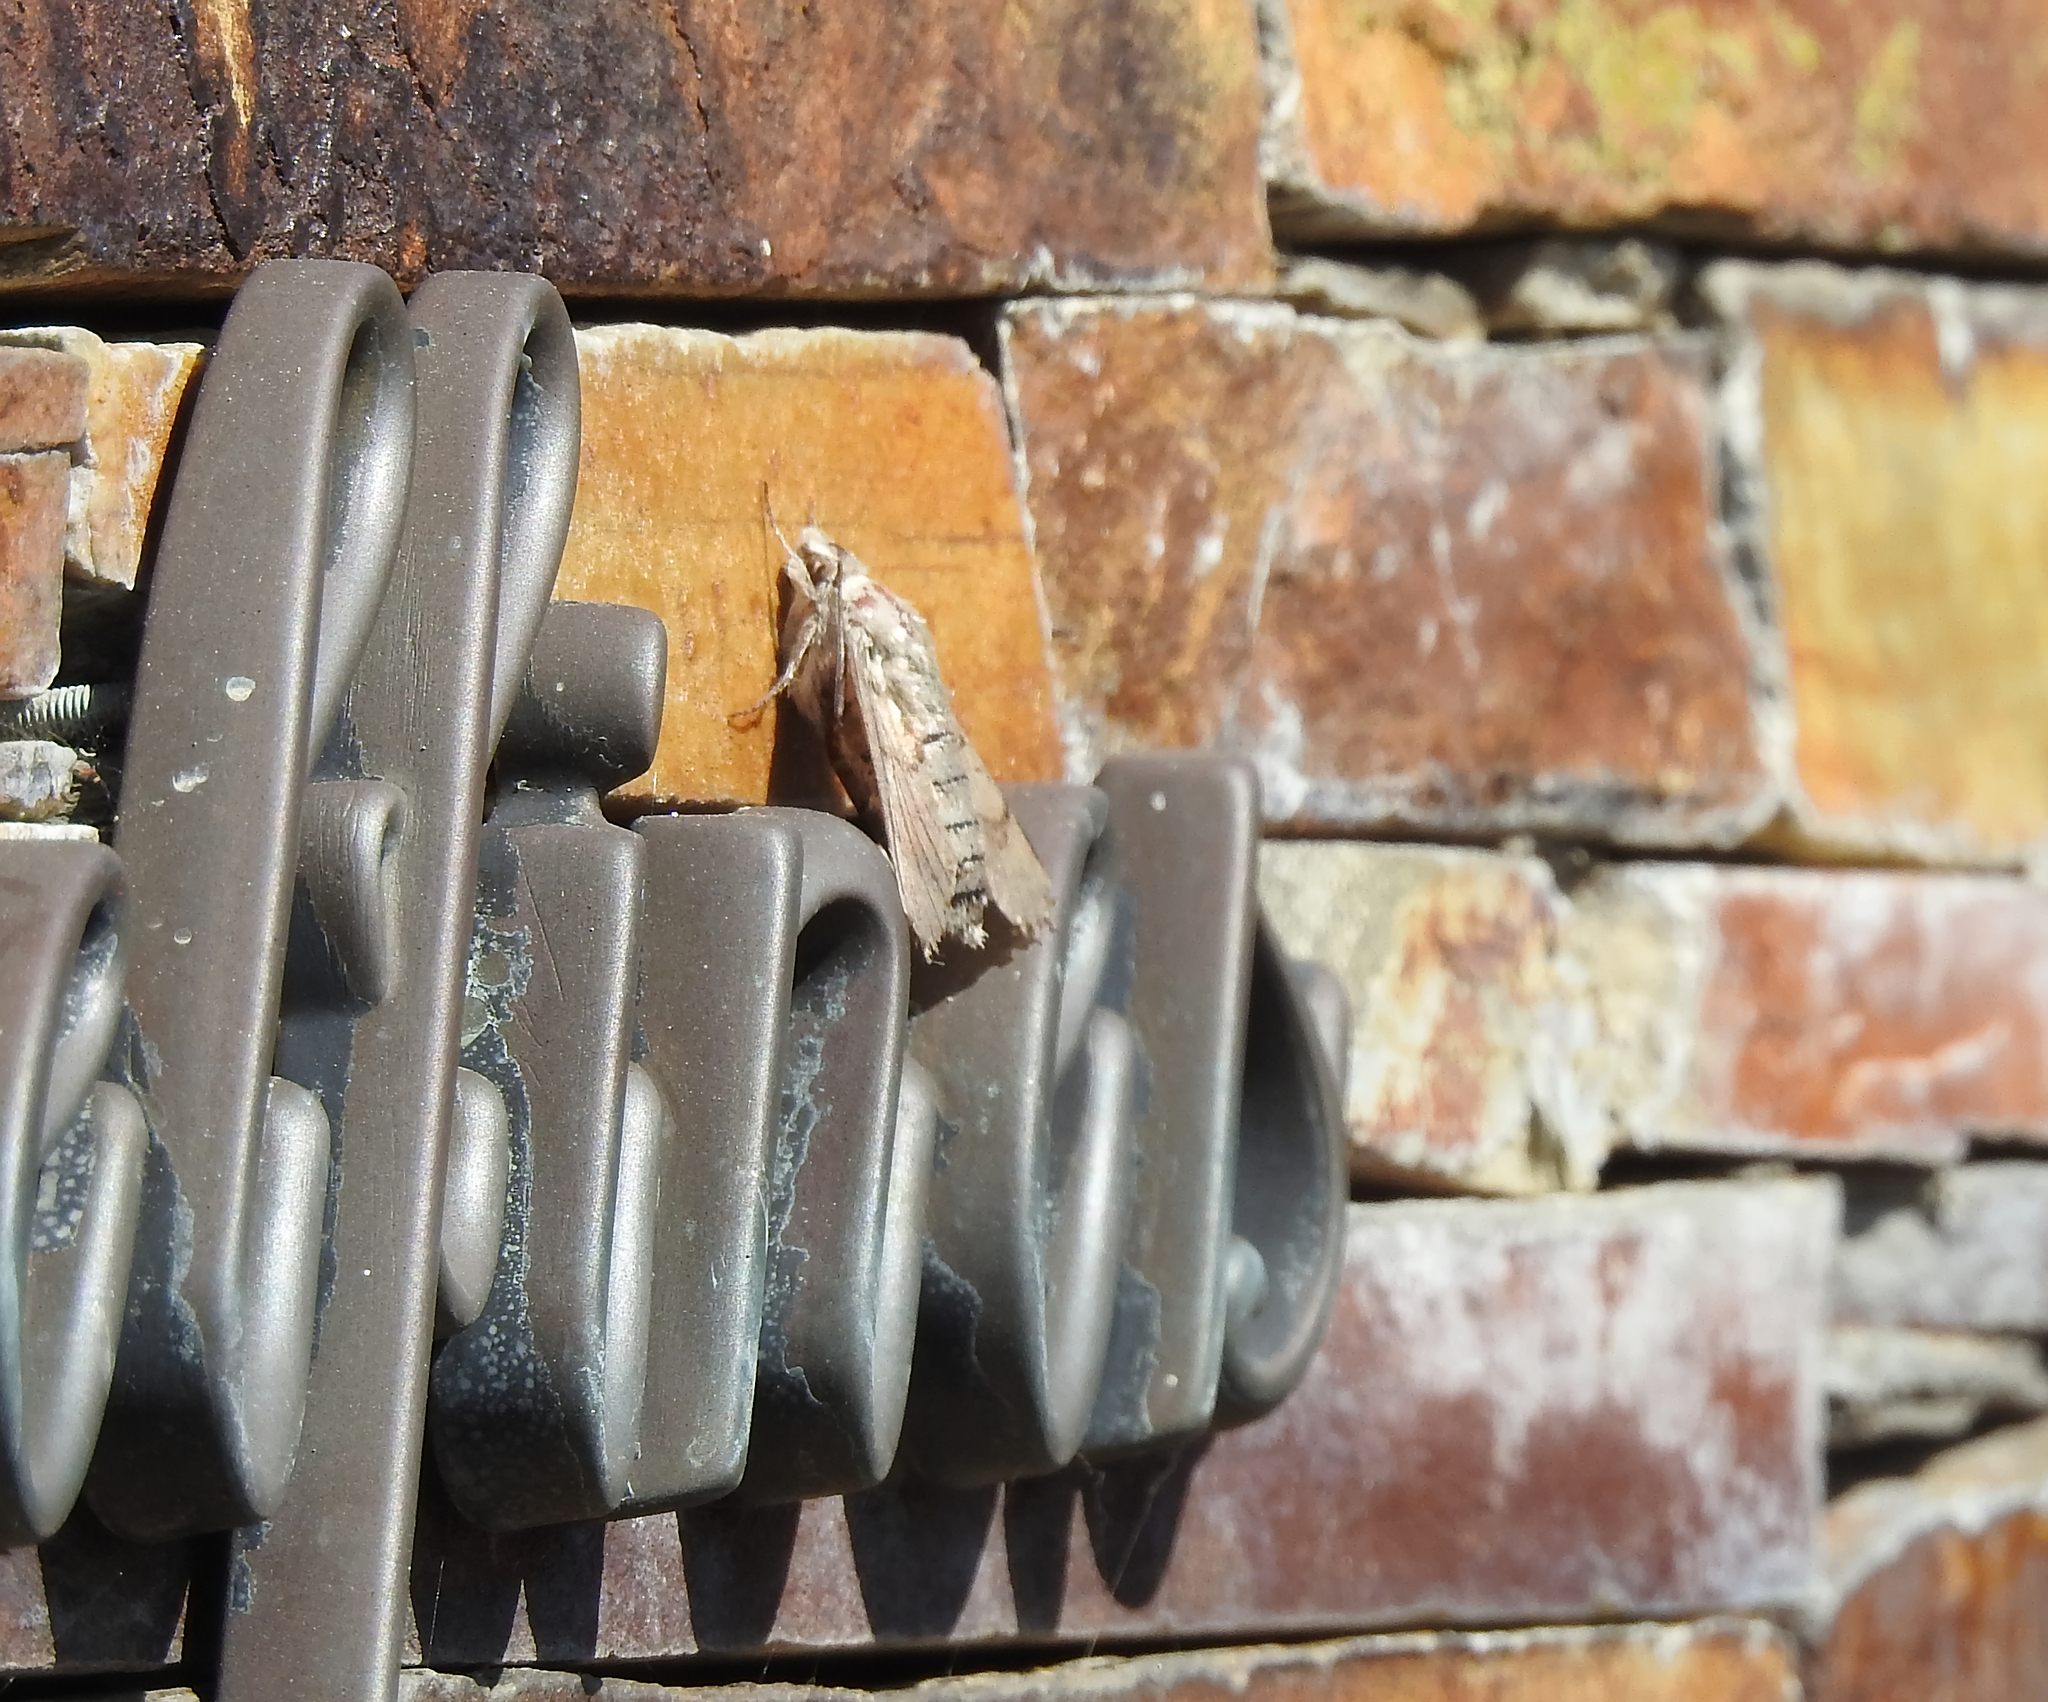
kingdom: Animalia
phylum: Arthropoda
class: Insecta
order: Lepidoptera
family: Sphingidae
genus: Macroglossum
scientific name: Macroglossum stellatarum
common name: Humming-bird hawk-moth
